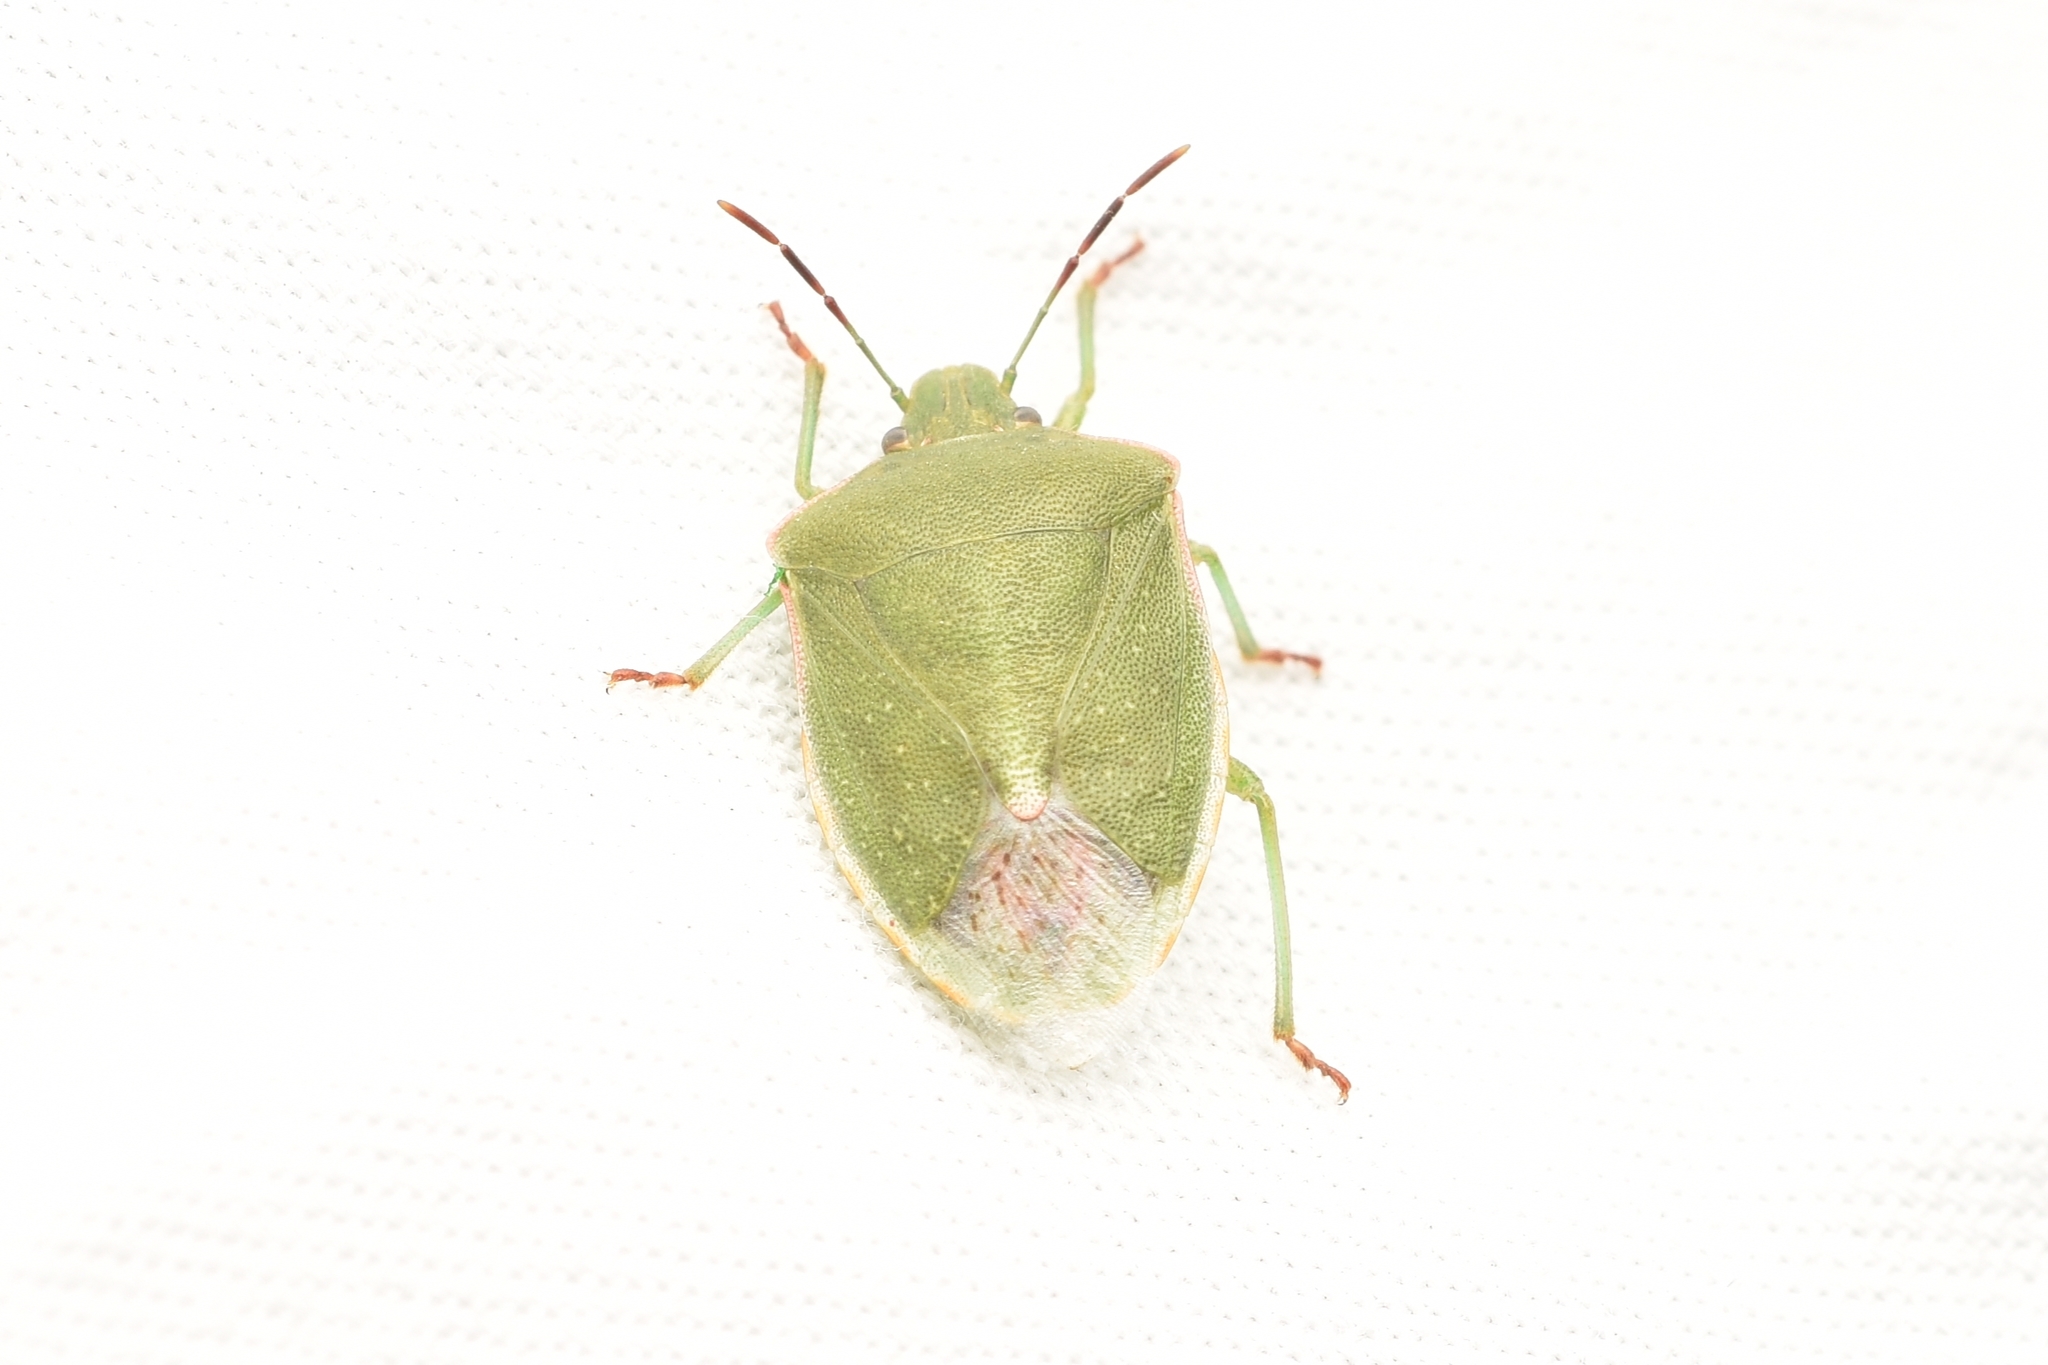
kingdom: Animalia
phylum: Arthropoda
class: Insecta
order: Hemiptera
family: Pentatomidae
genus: Thyanta
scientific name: Thyanta accerra
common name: Stink bug
